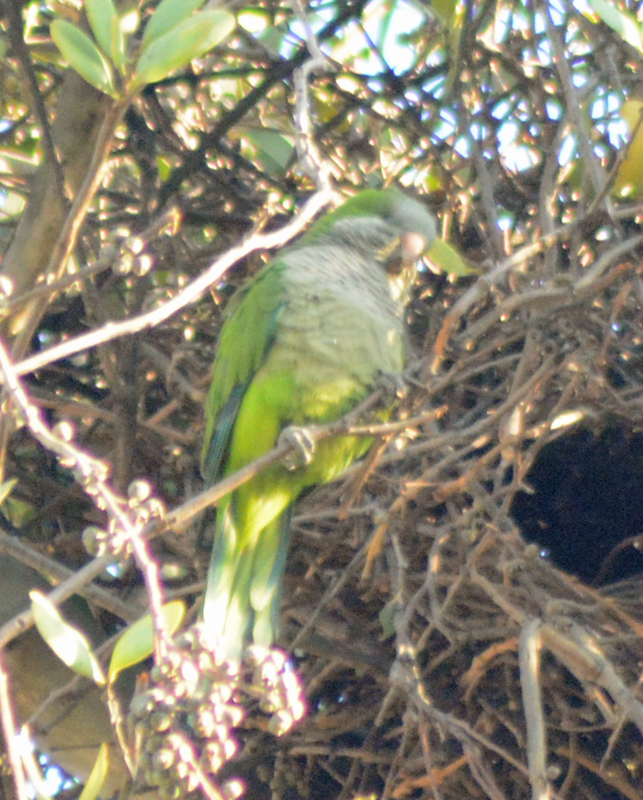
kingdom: Animalia
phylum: Chordata
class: Aves
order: Psittaciformes
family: Psittacidae
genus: Myiopsitta
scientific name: Myiopsitta monachus
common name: Monk parakeet
